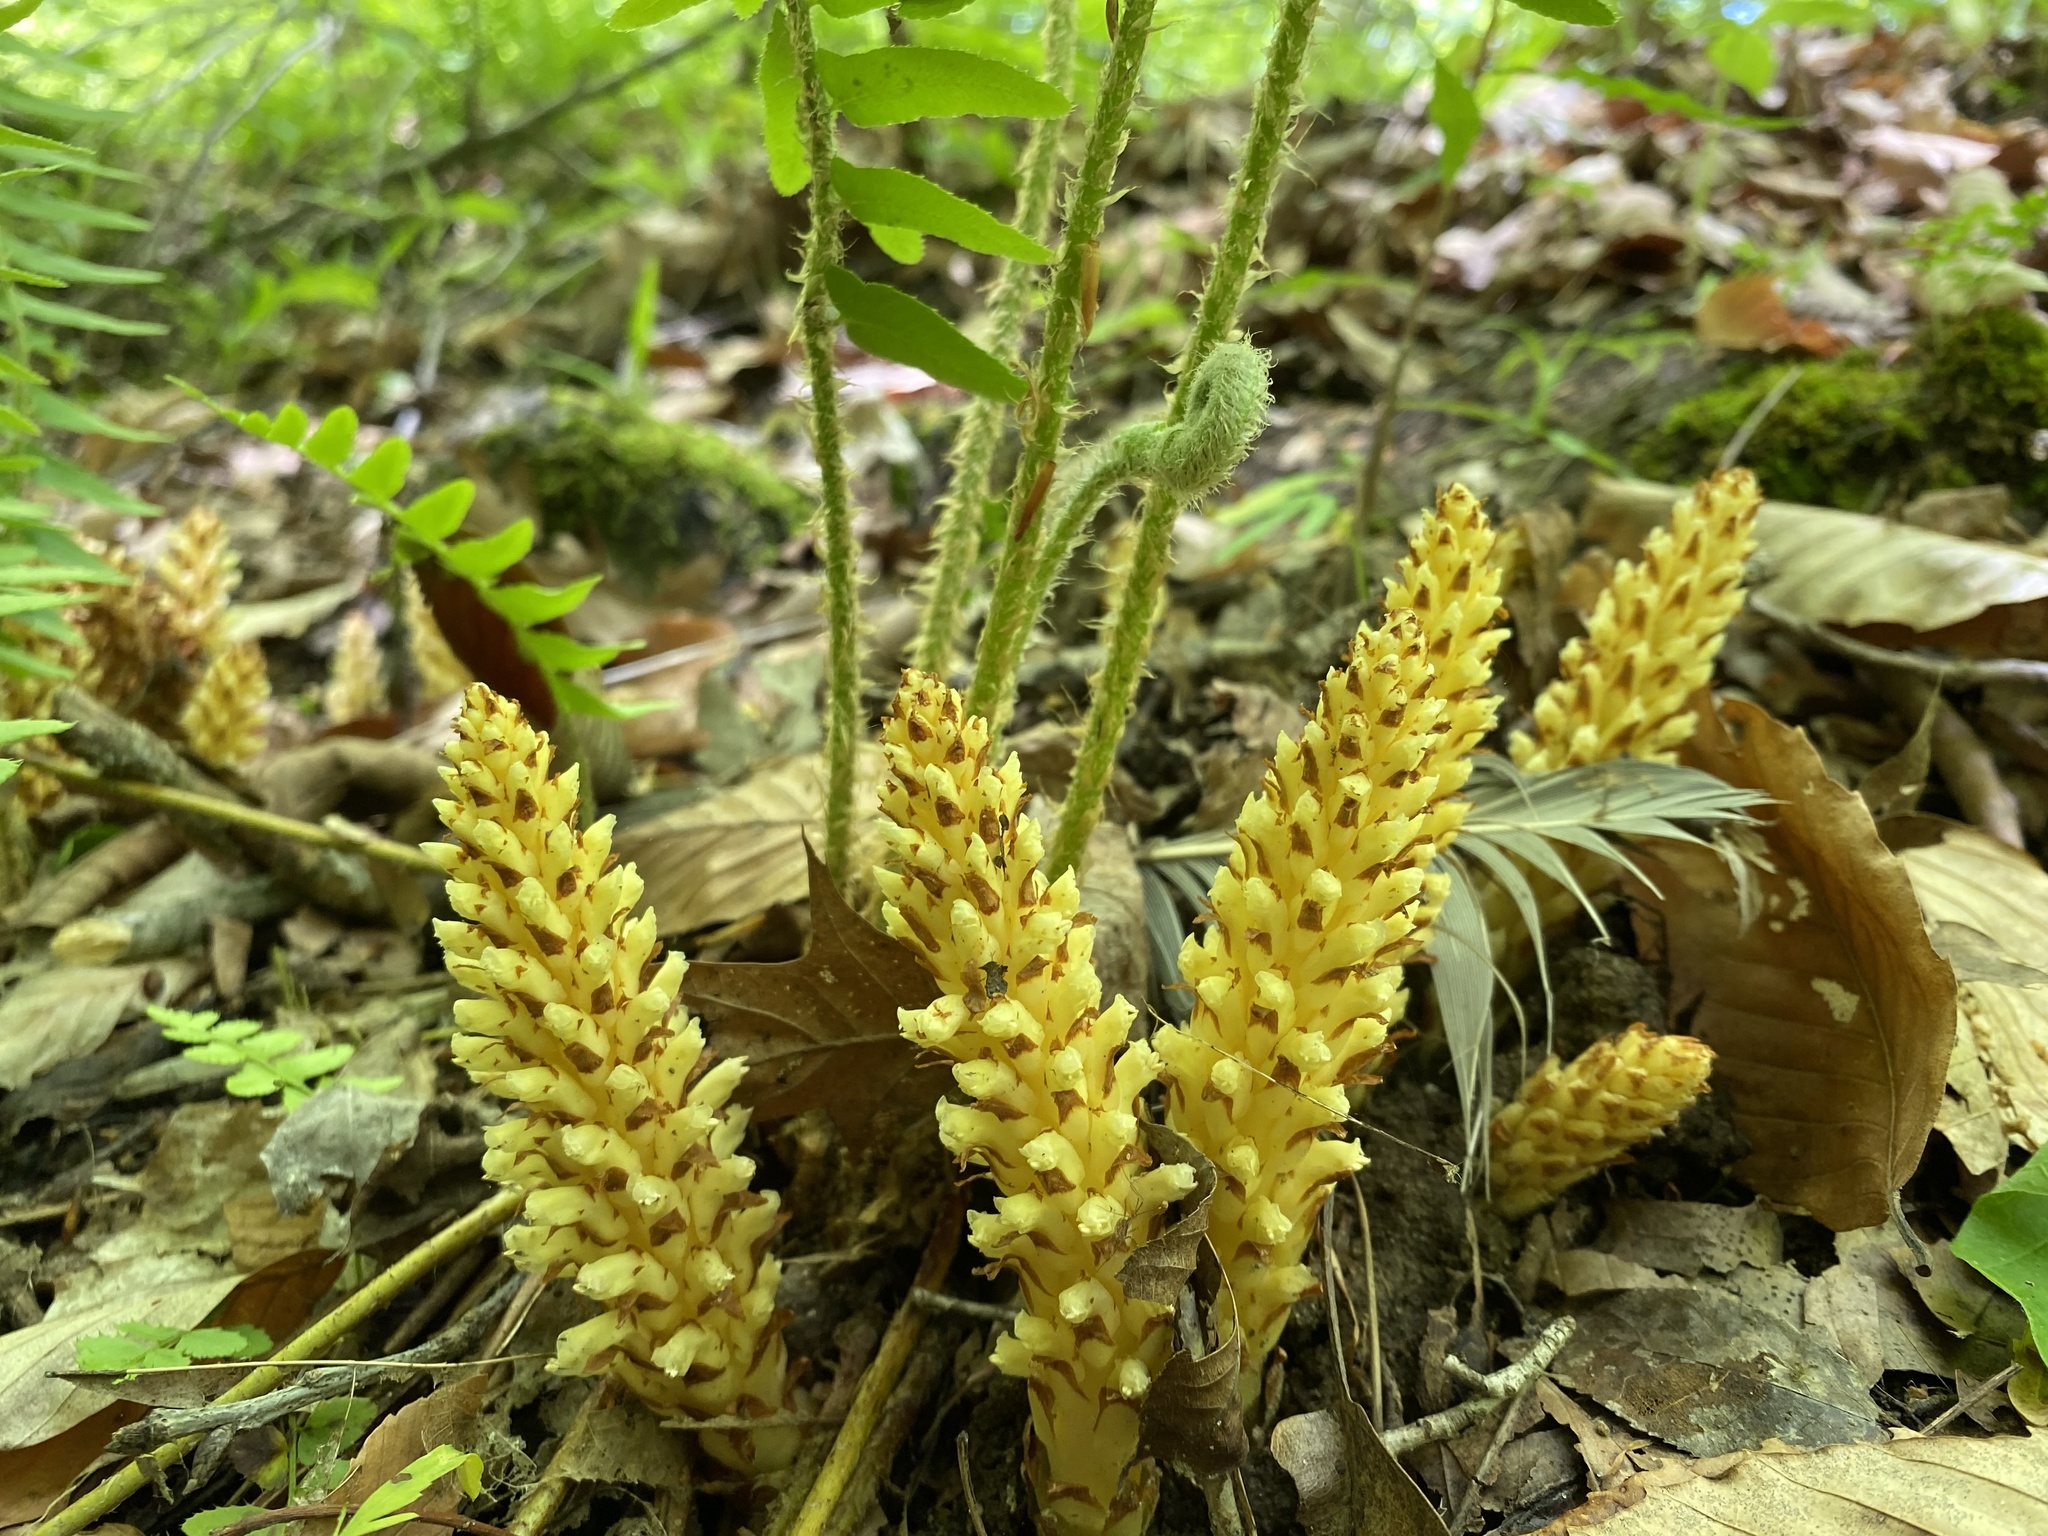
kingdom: Plantae
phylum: Tracheophyta
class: Magnoliopsida
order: Lamiales
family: Orobanchaceae
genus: Conopholis
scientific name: Conopholis americana
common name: American cancer-root
